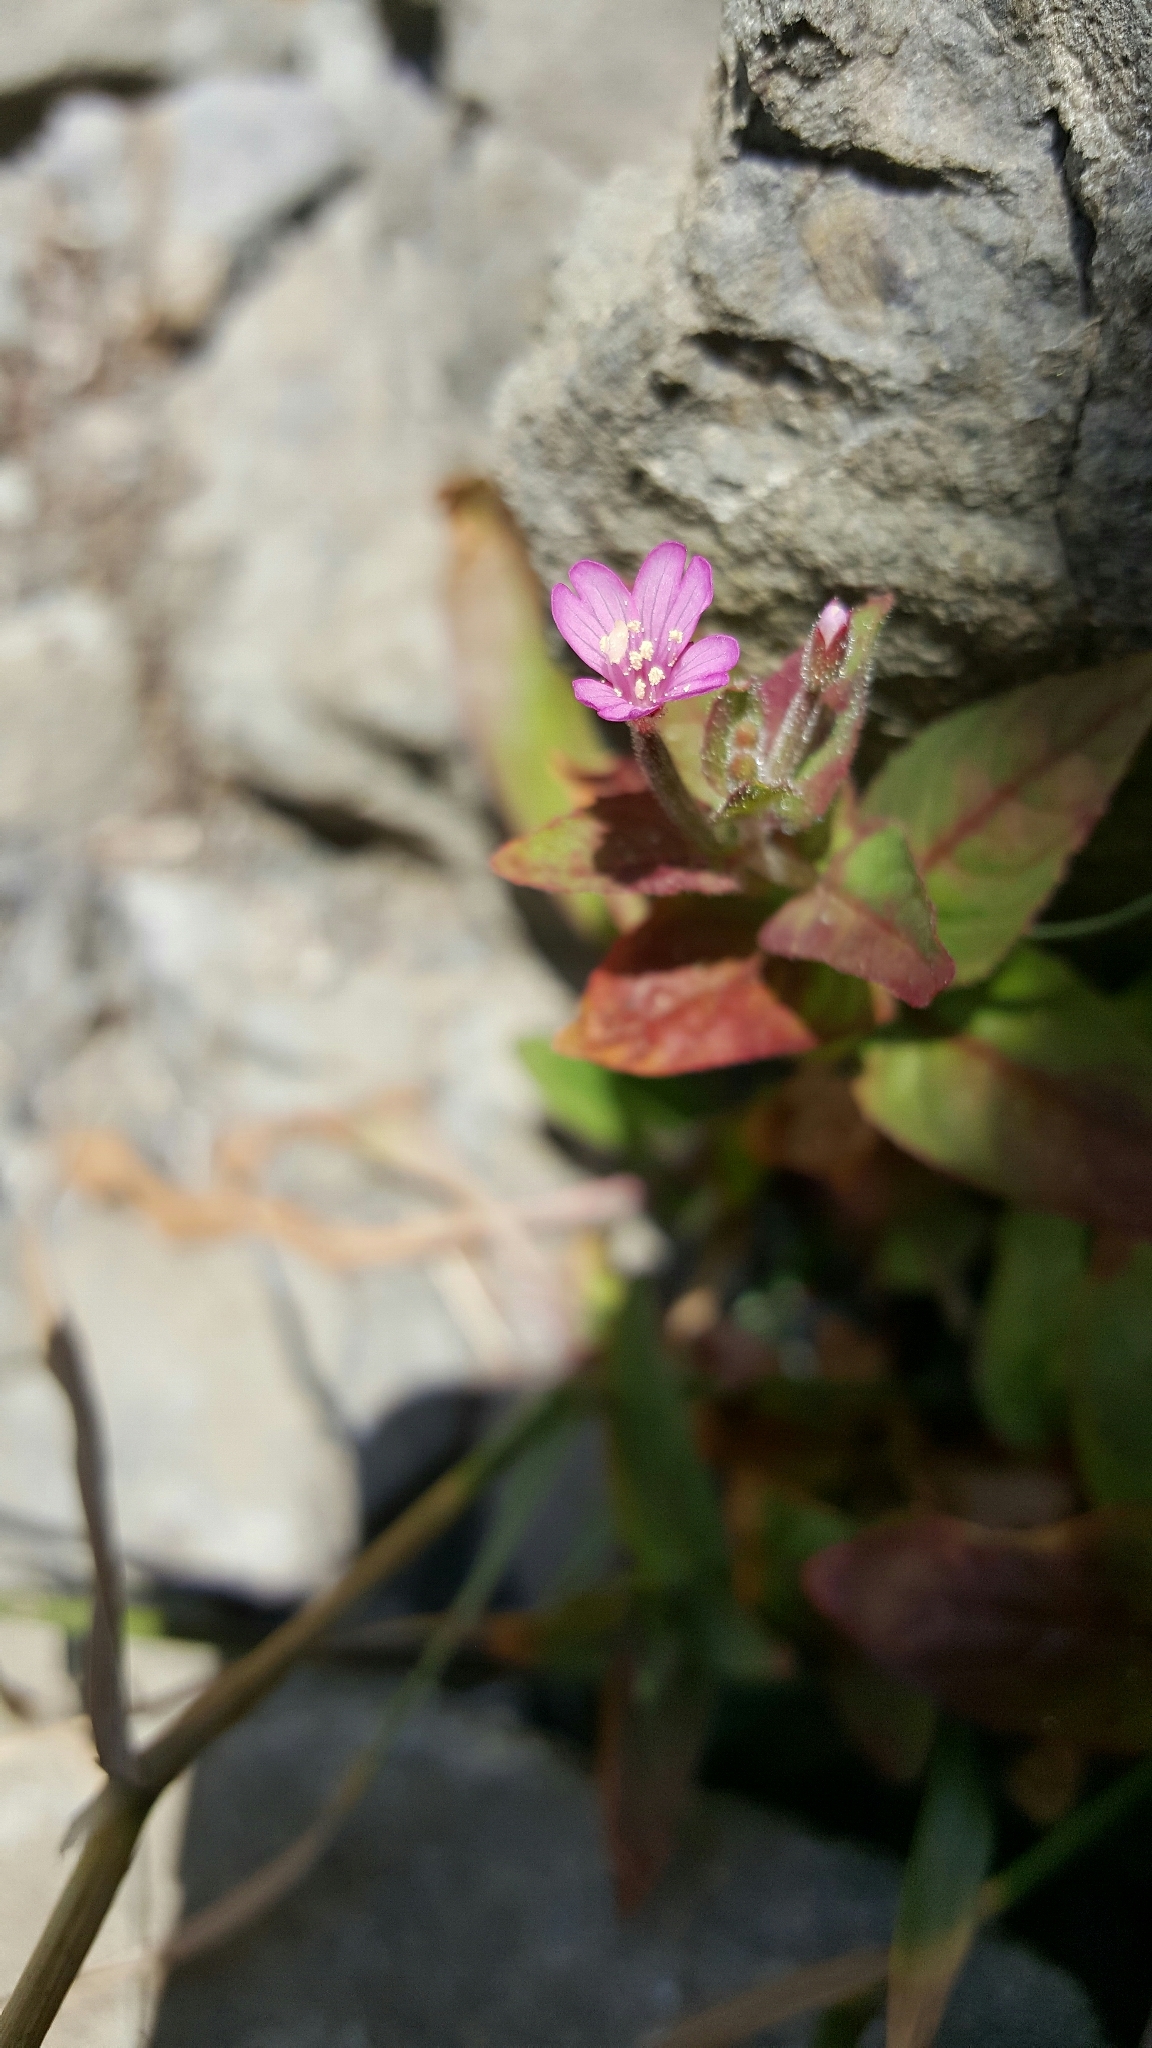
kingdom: Plantae
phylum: Tracheophyta
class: Magnoliopsida
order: Myrtales
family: Onagraceae
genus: Epilobium
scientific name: Epilobium ciliatum
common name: American willowherb
